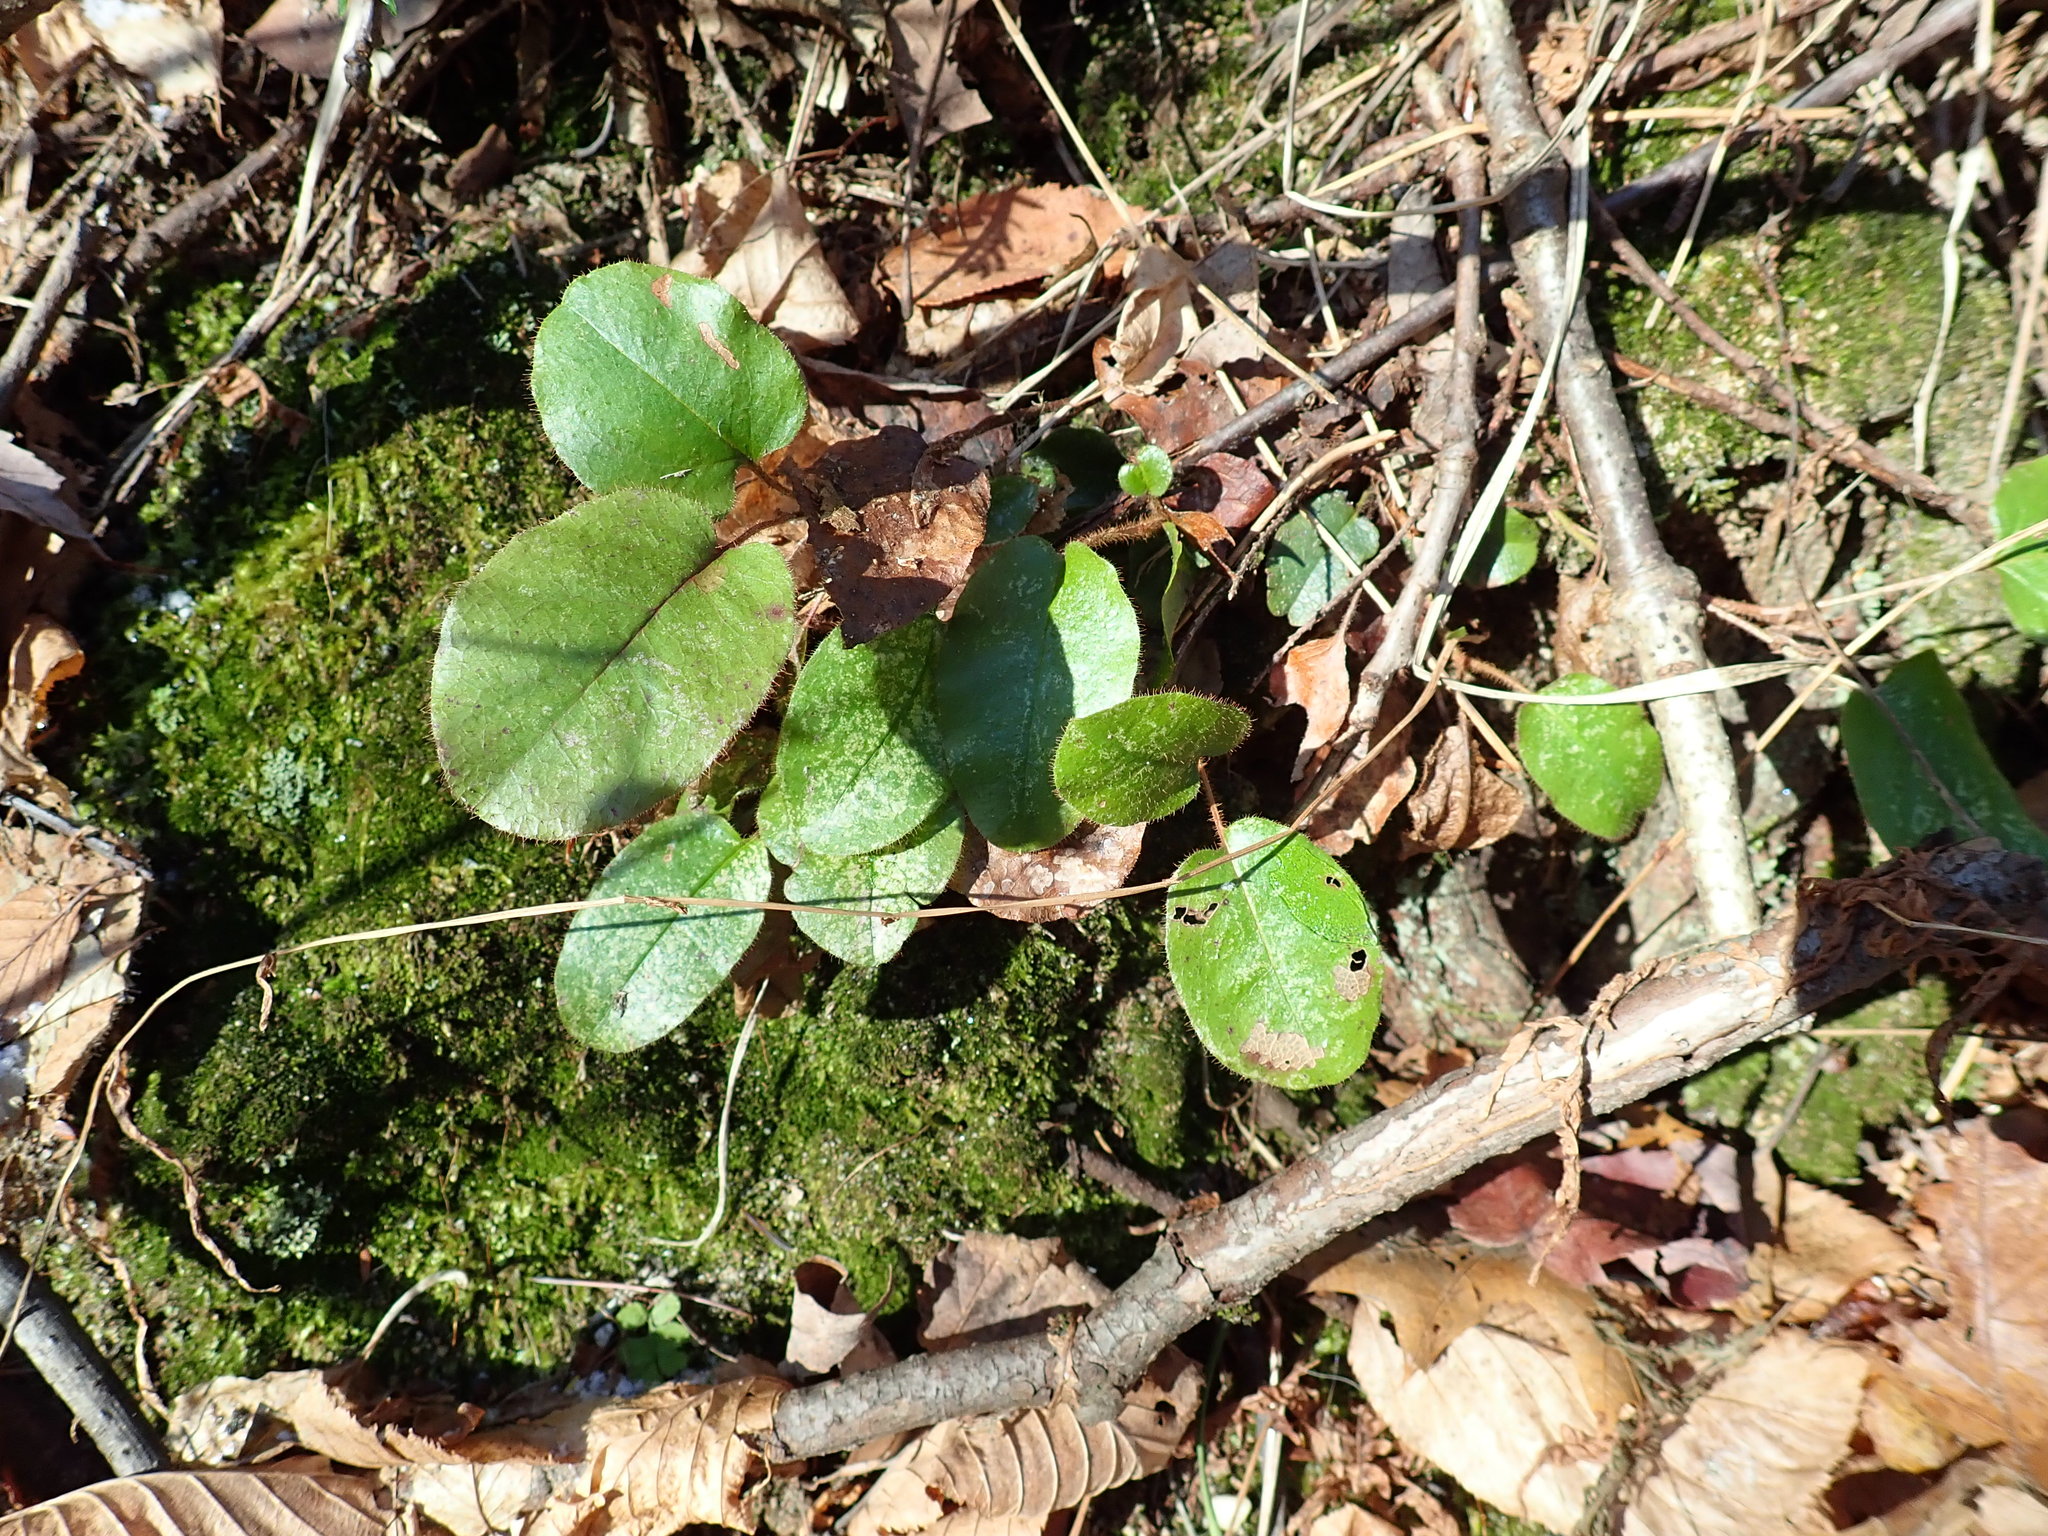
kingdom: Plantae
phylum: Tracheophyta
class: Magnoliopsida
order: Ericales
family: Ericaceae
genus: Epigaea
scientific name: Epigaea repens
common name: Gravelroot
